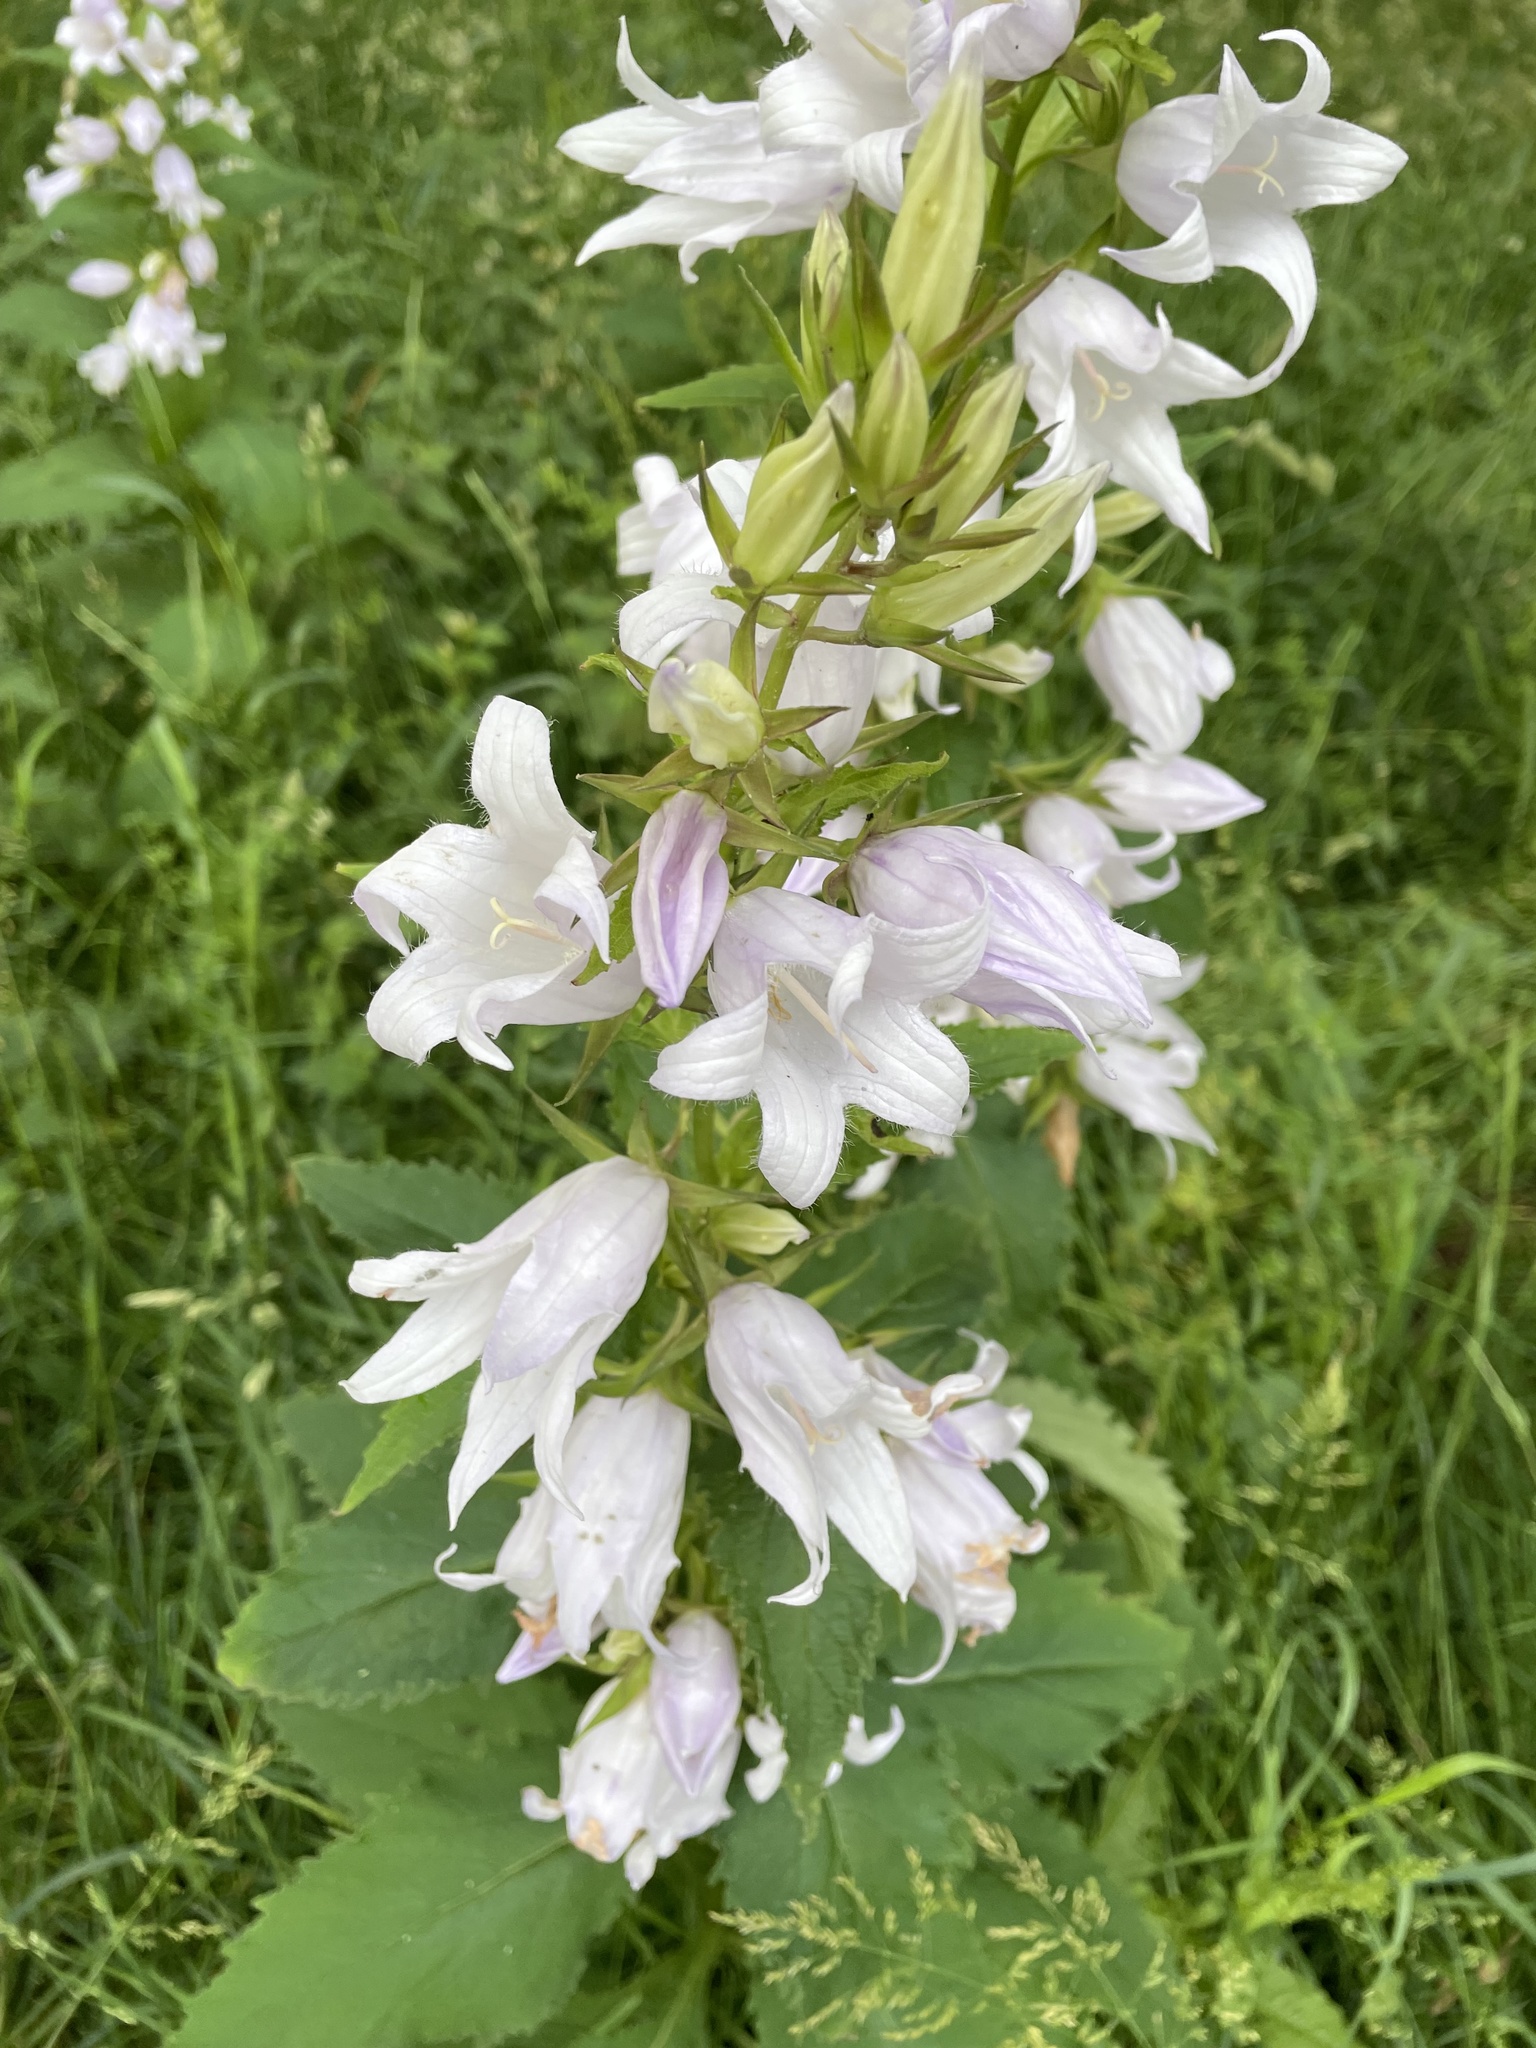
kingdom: Plantae
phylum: Tracheophyta
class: Magnoliopsida
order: Asterales
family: Campanulaceae
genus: Campanula
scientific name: Campanula latifolia
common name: Giant bellflower
